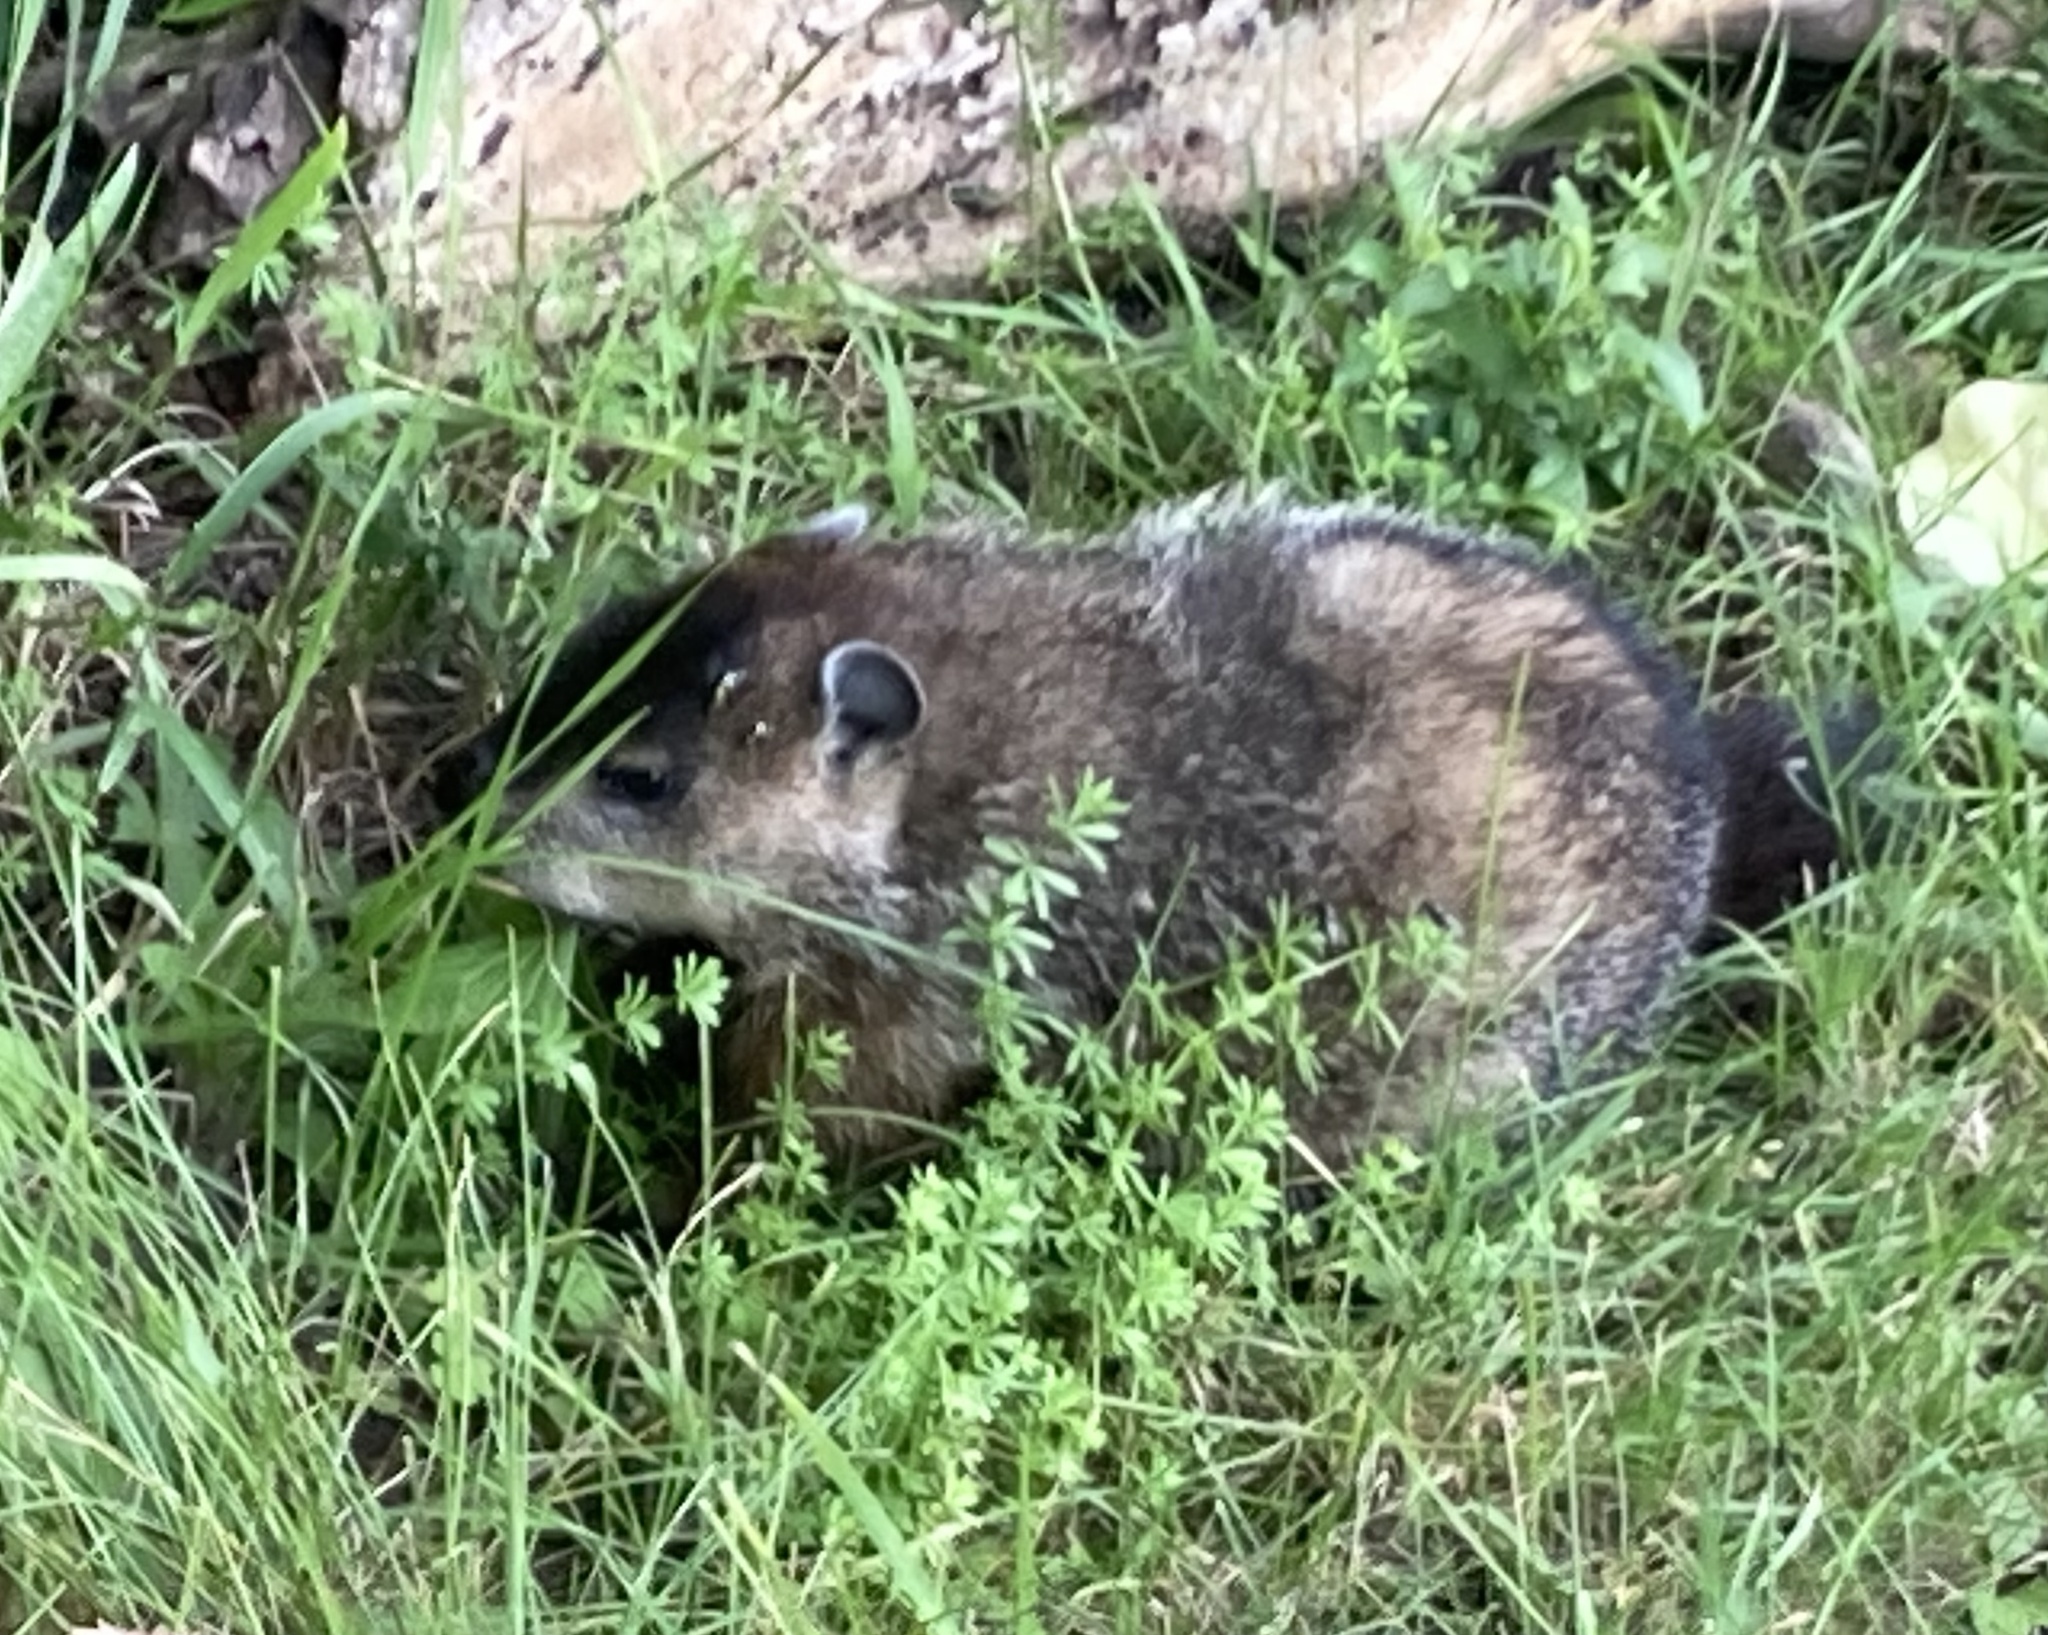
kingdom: Animalia
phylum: Chordata
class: Mammalia
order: Rodentia
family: Sciuridae
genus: Marmota
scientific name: Marmota monax
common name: Groundhog
